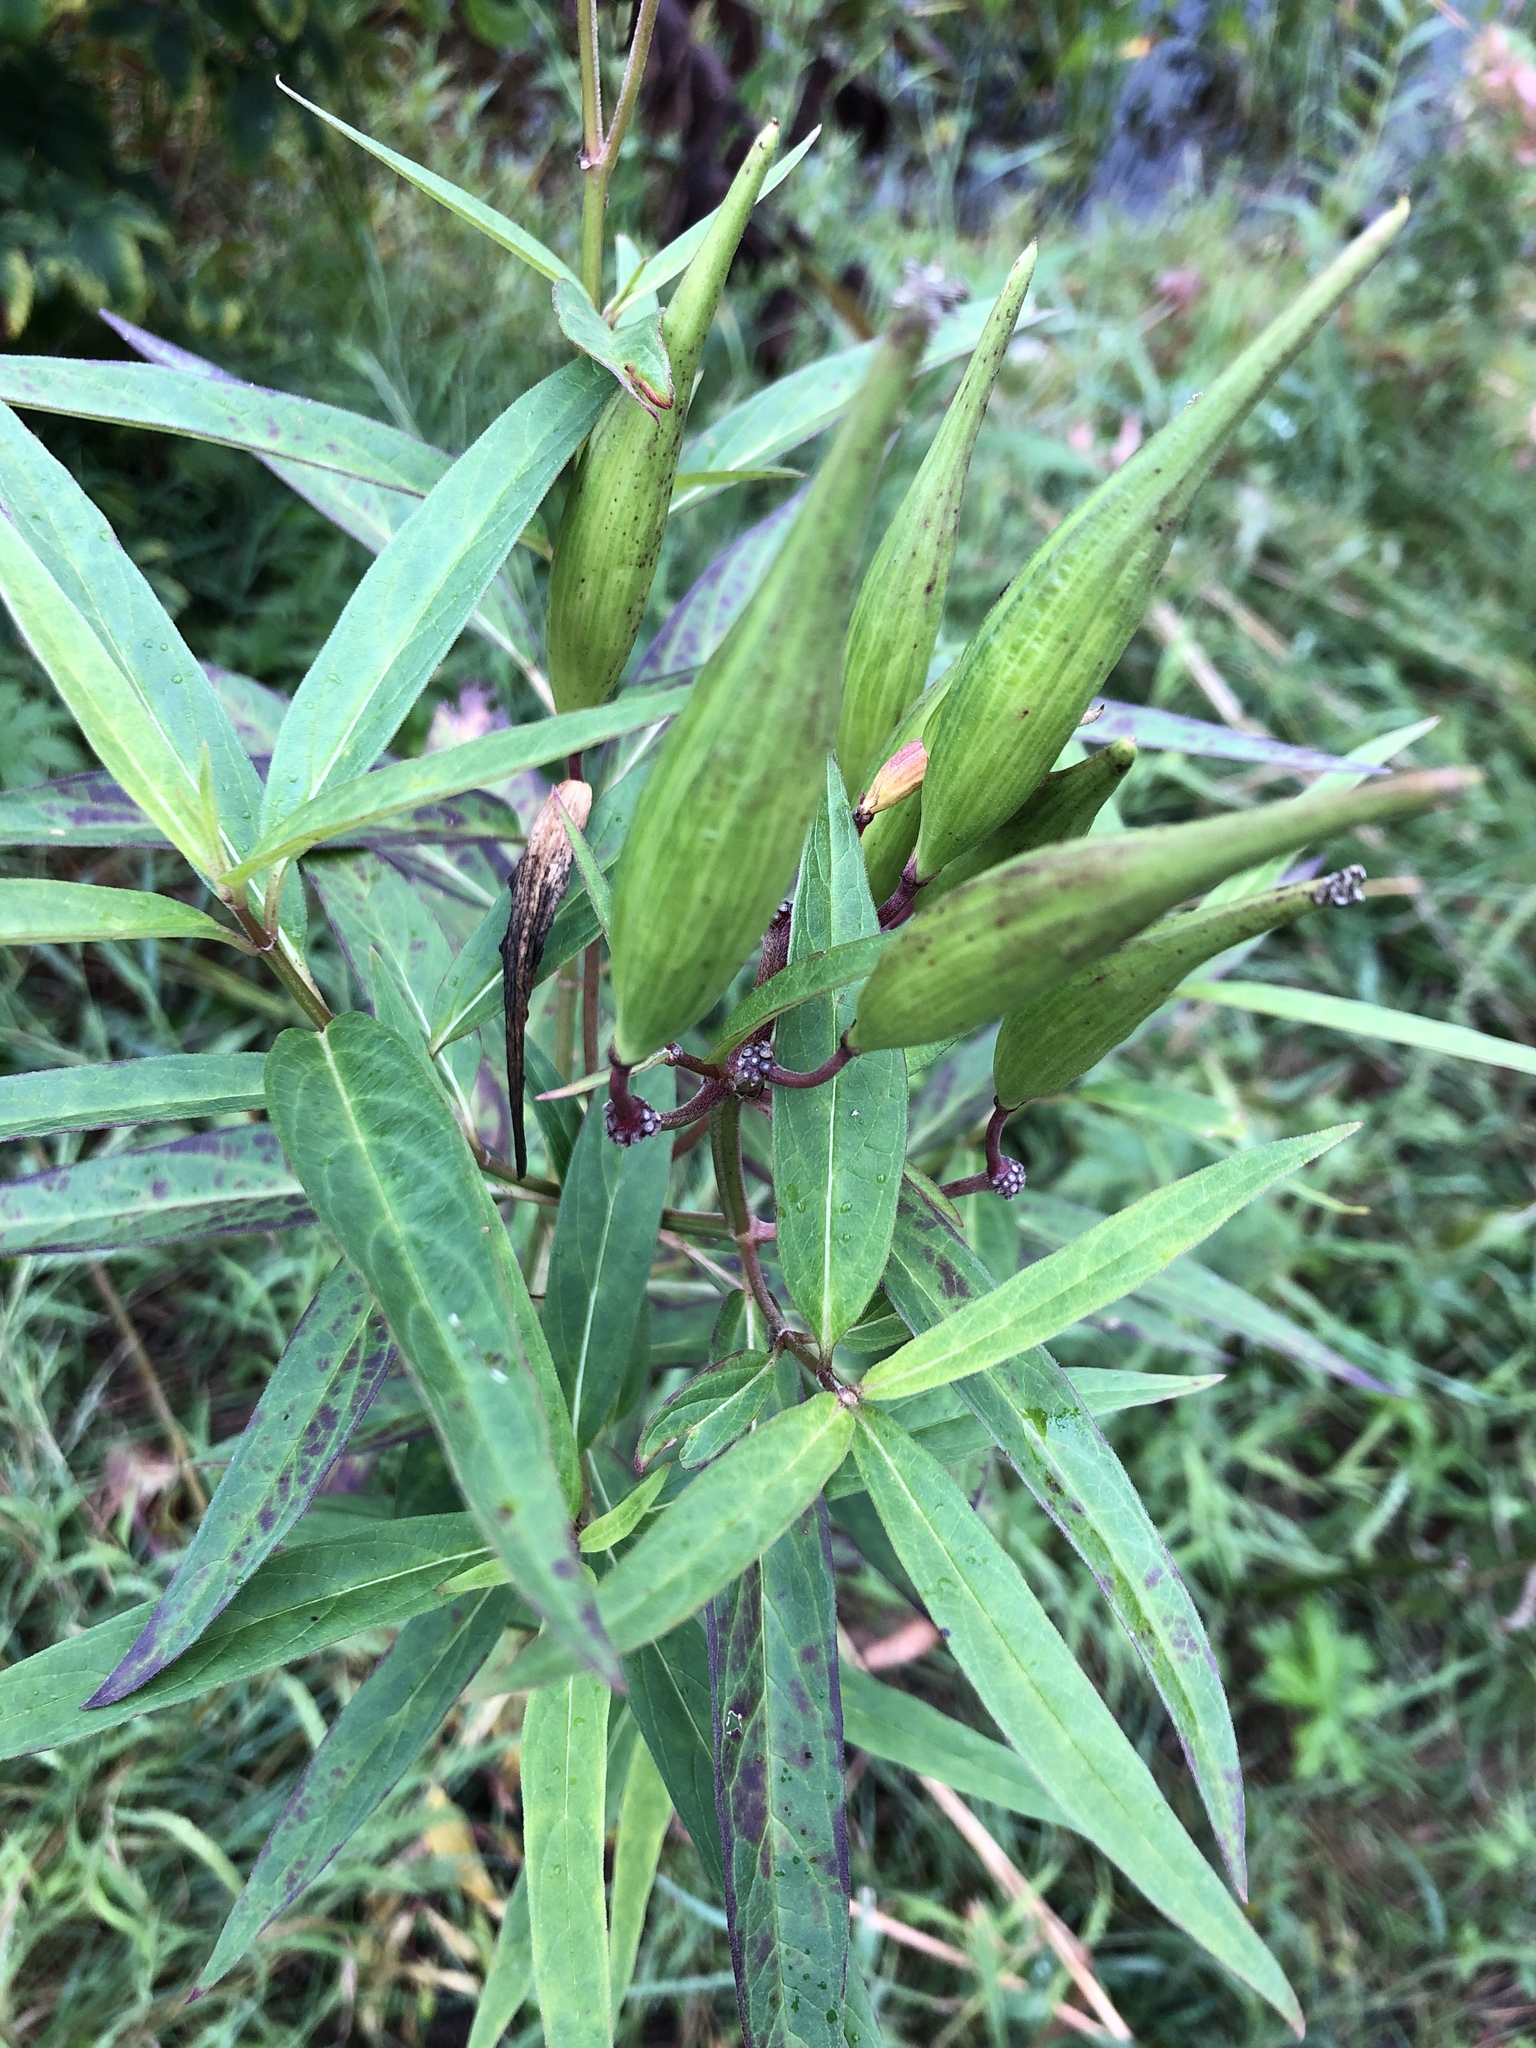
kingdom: Plantae
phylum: Tracheophyta
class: Magnoliopsida
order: Gentianales
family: Apocynaceae
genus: Asclepias
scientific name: Asclepias incarnata
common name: Swamp milkweed
